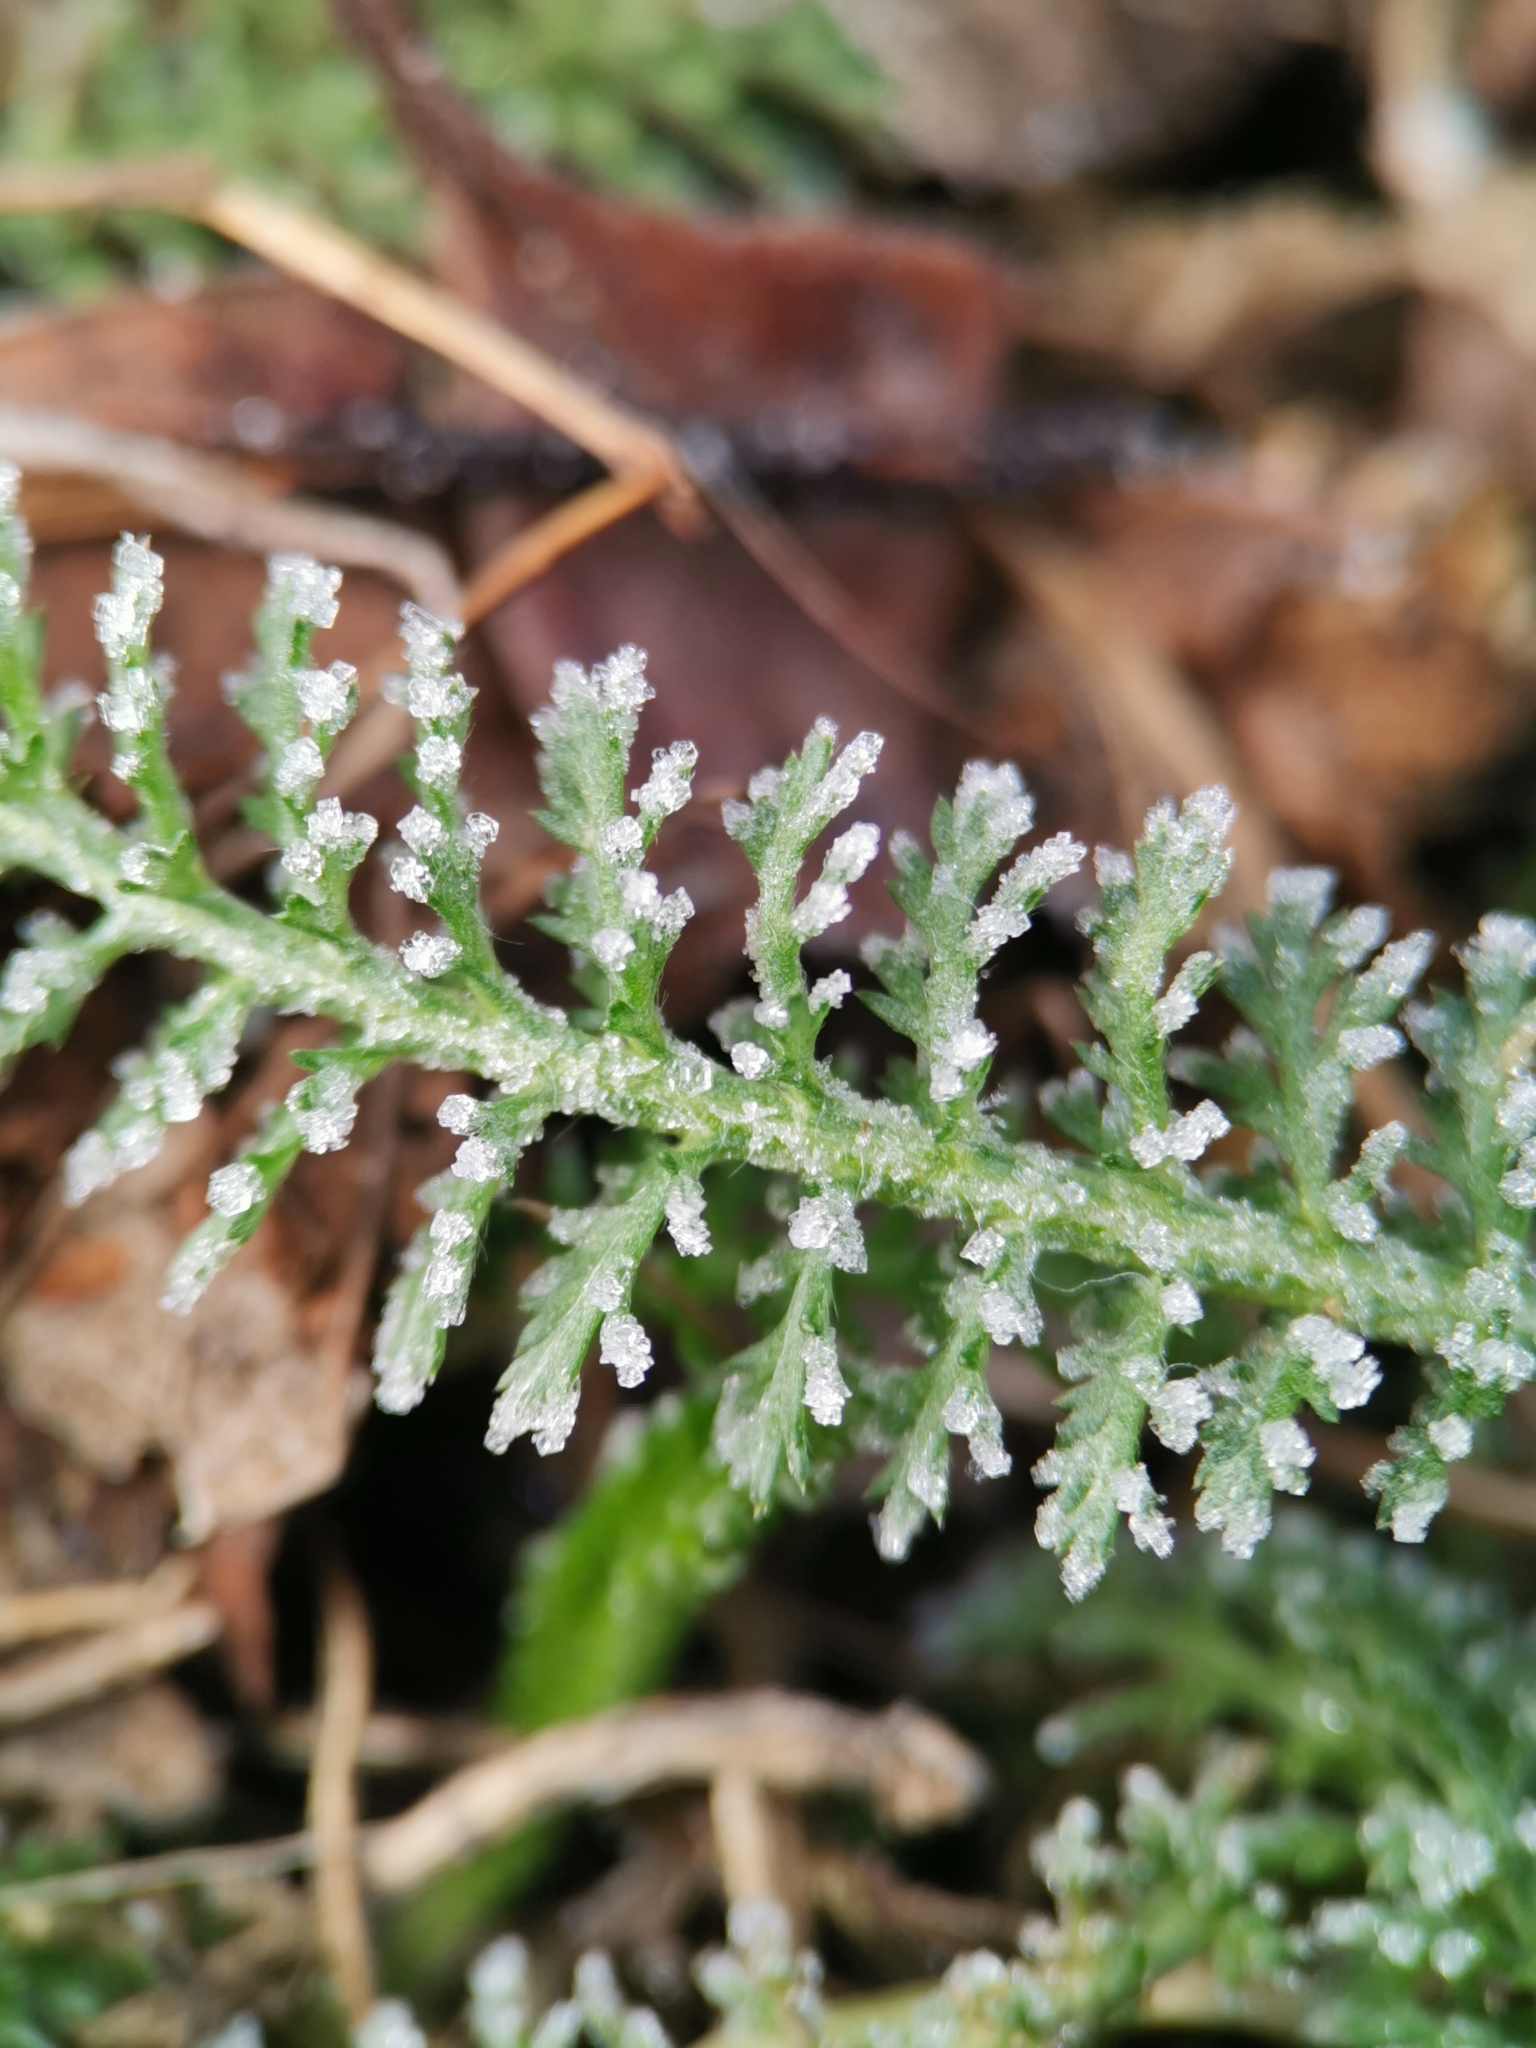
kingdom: Plantae
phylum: Tracheophyta
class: Magnoliopsida
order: Asterales
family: Asteraceae
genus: Achillea
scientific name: Achillea millefolium
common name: Yarrow
